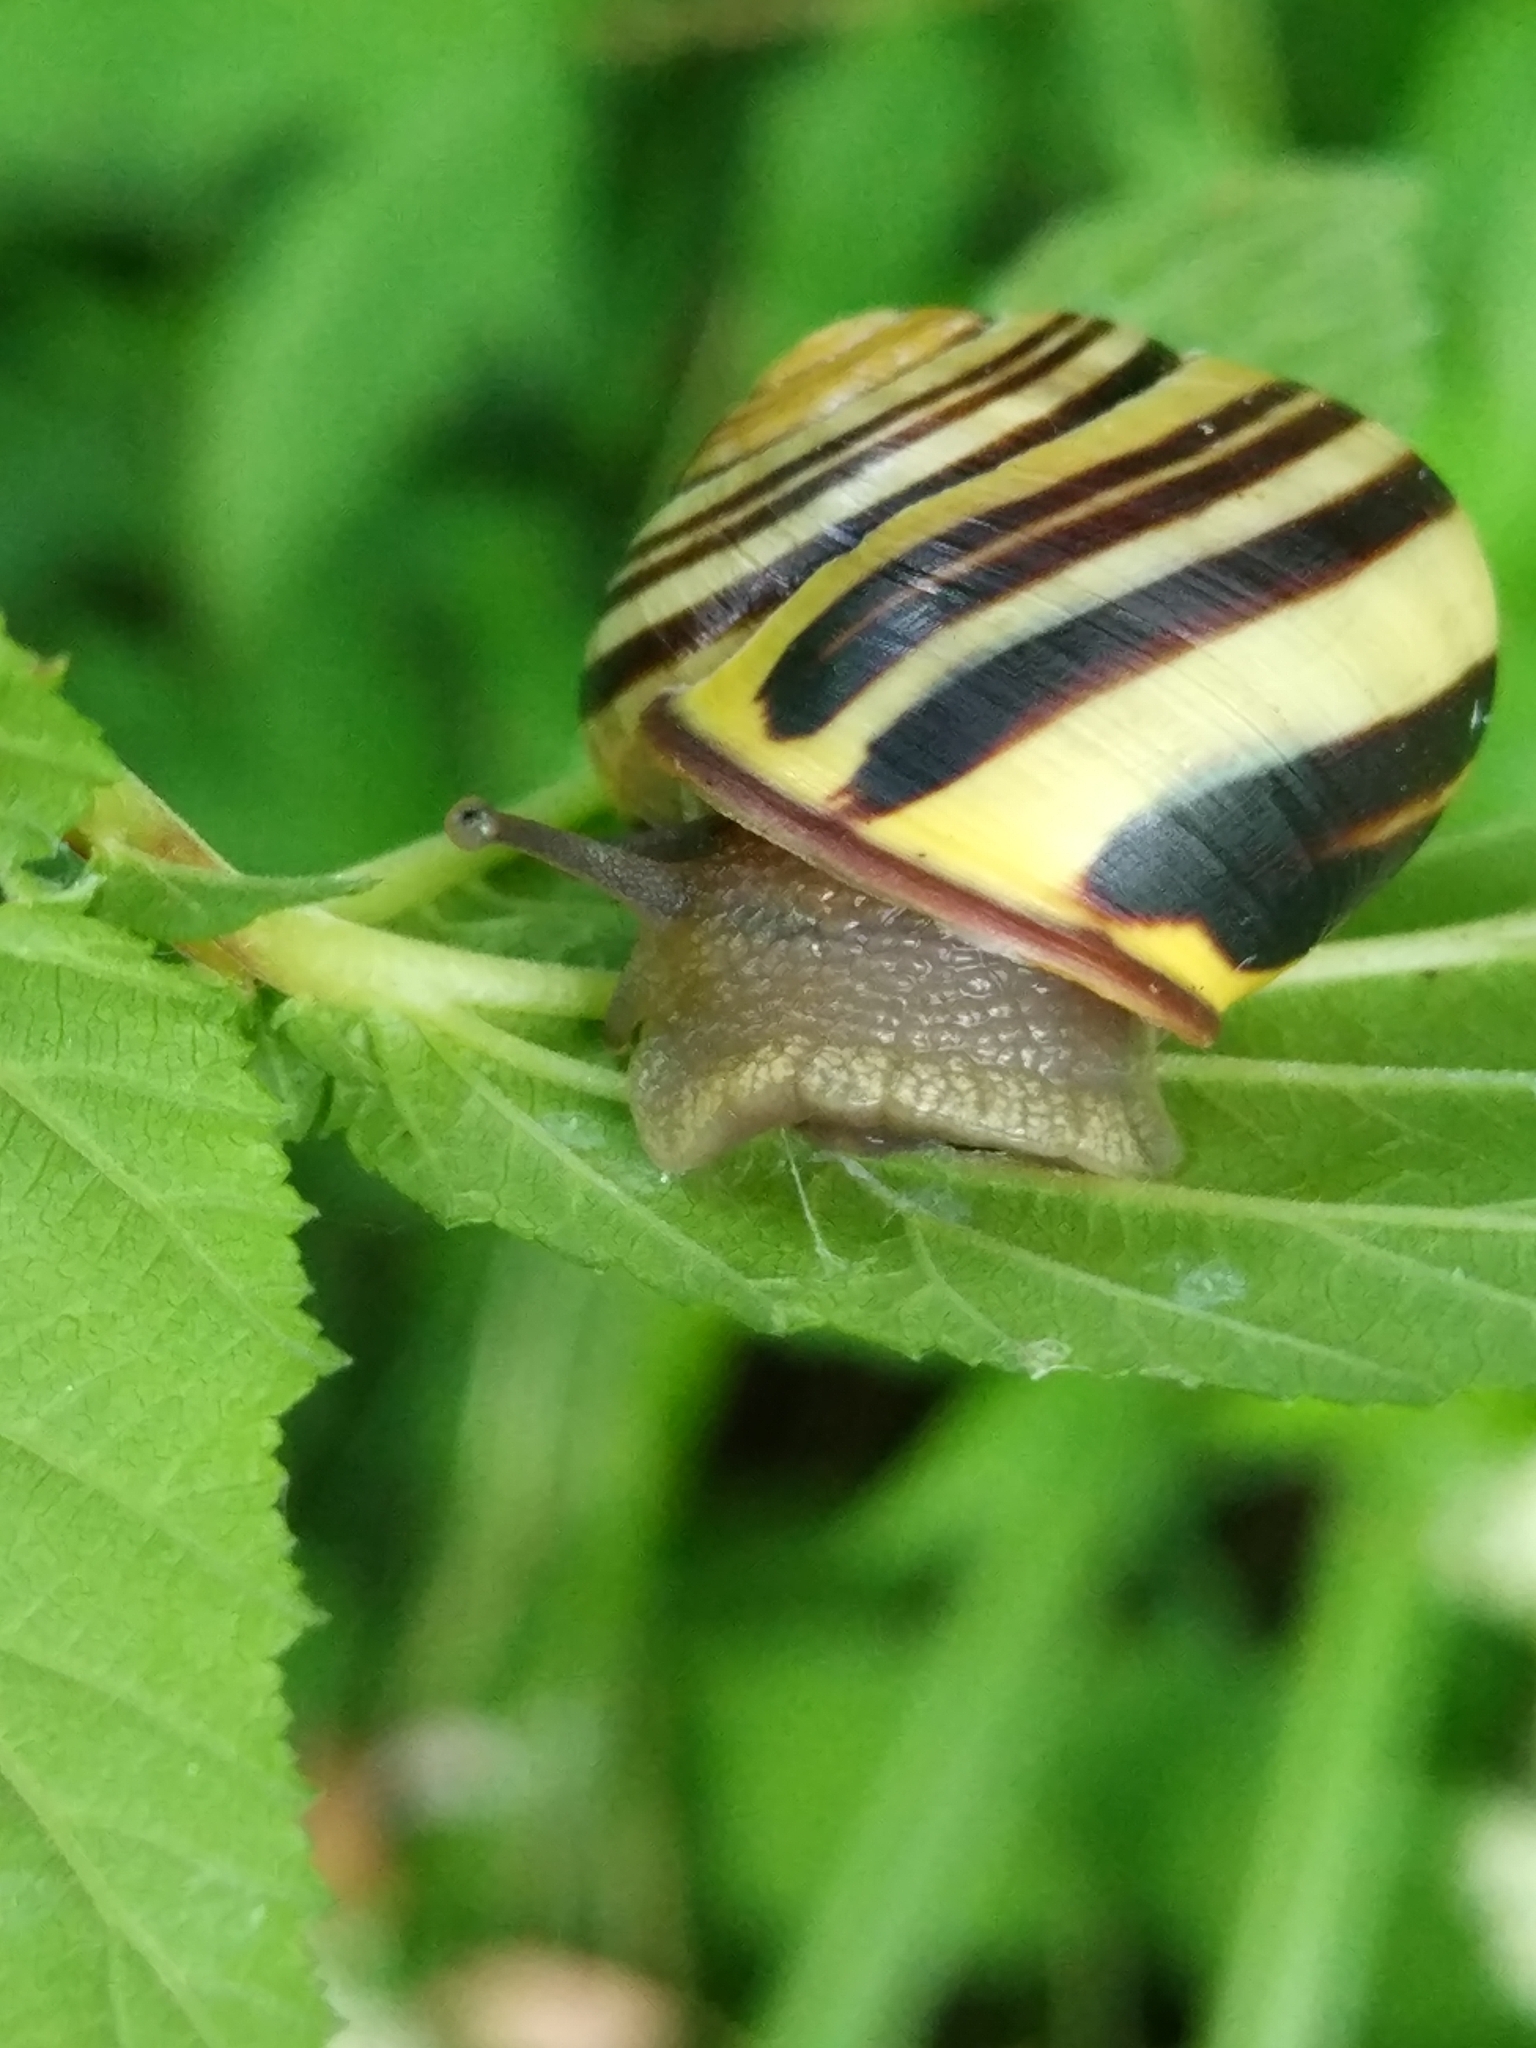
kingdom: Animalia
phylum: Mollusca
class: Gastropoda
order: Stylommatophora
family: Helicidae
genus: Cepaea
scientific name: Cepaea nemoralis
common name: Grovesnail
